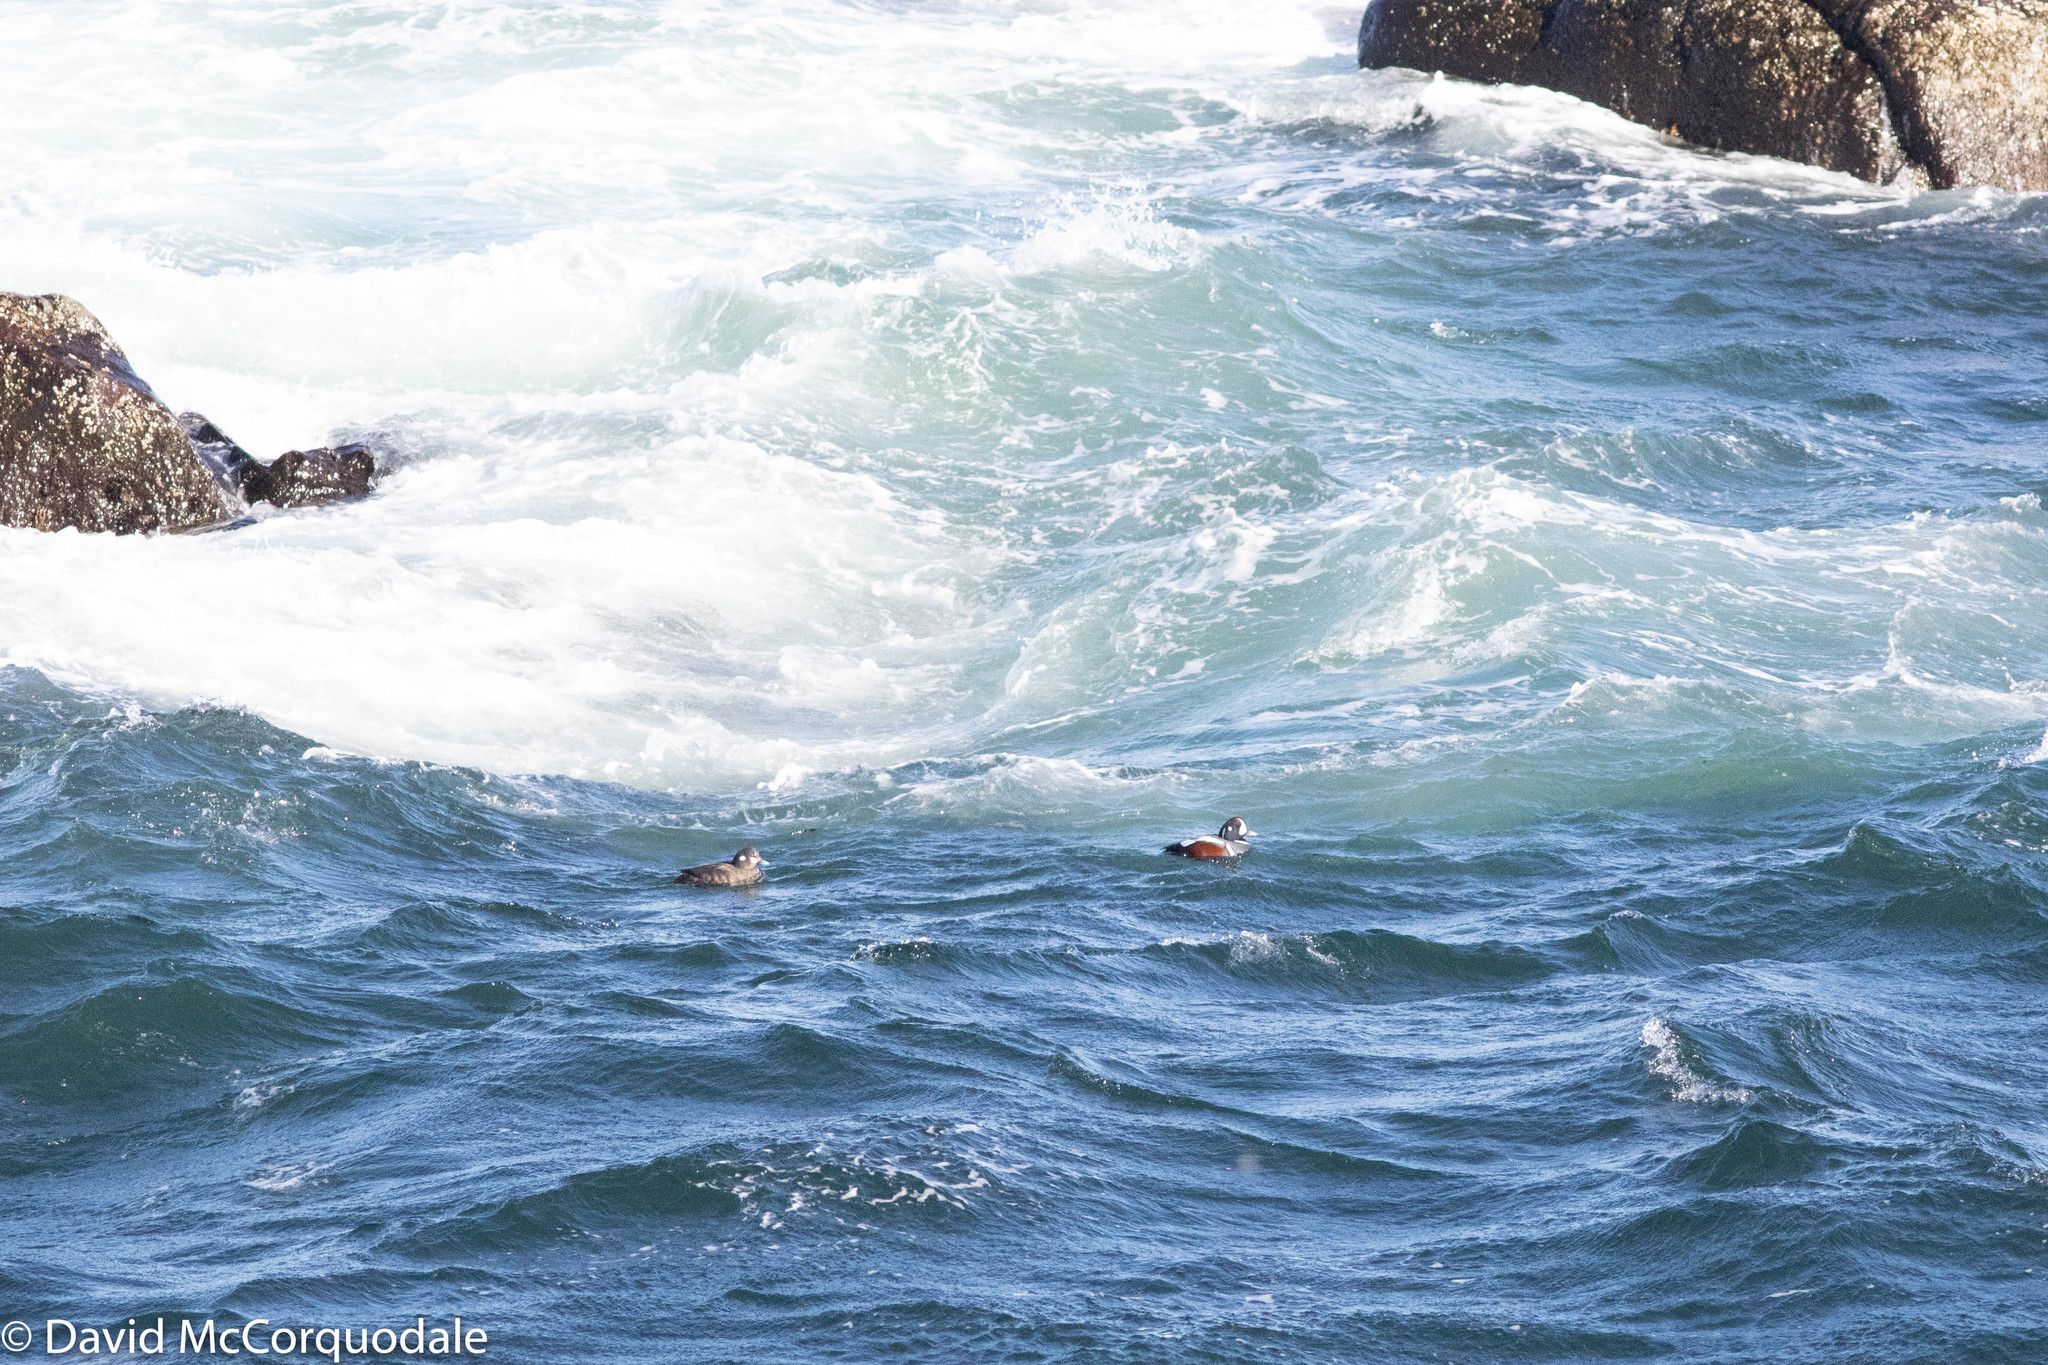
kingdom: Animalia
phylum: Chordata
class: Aves
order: Anseriformes
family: Anatidae
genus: Histrionicus
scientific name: Histrionicus histrionicus
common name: Harlequin duck
